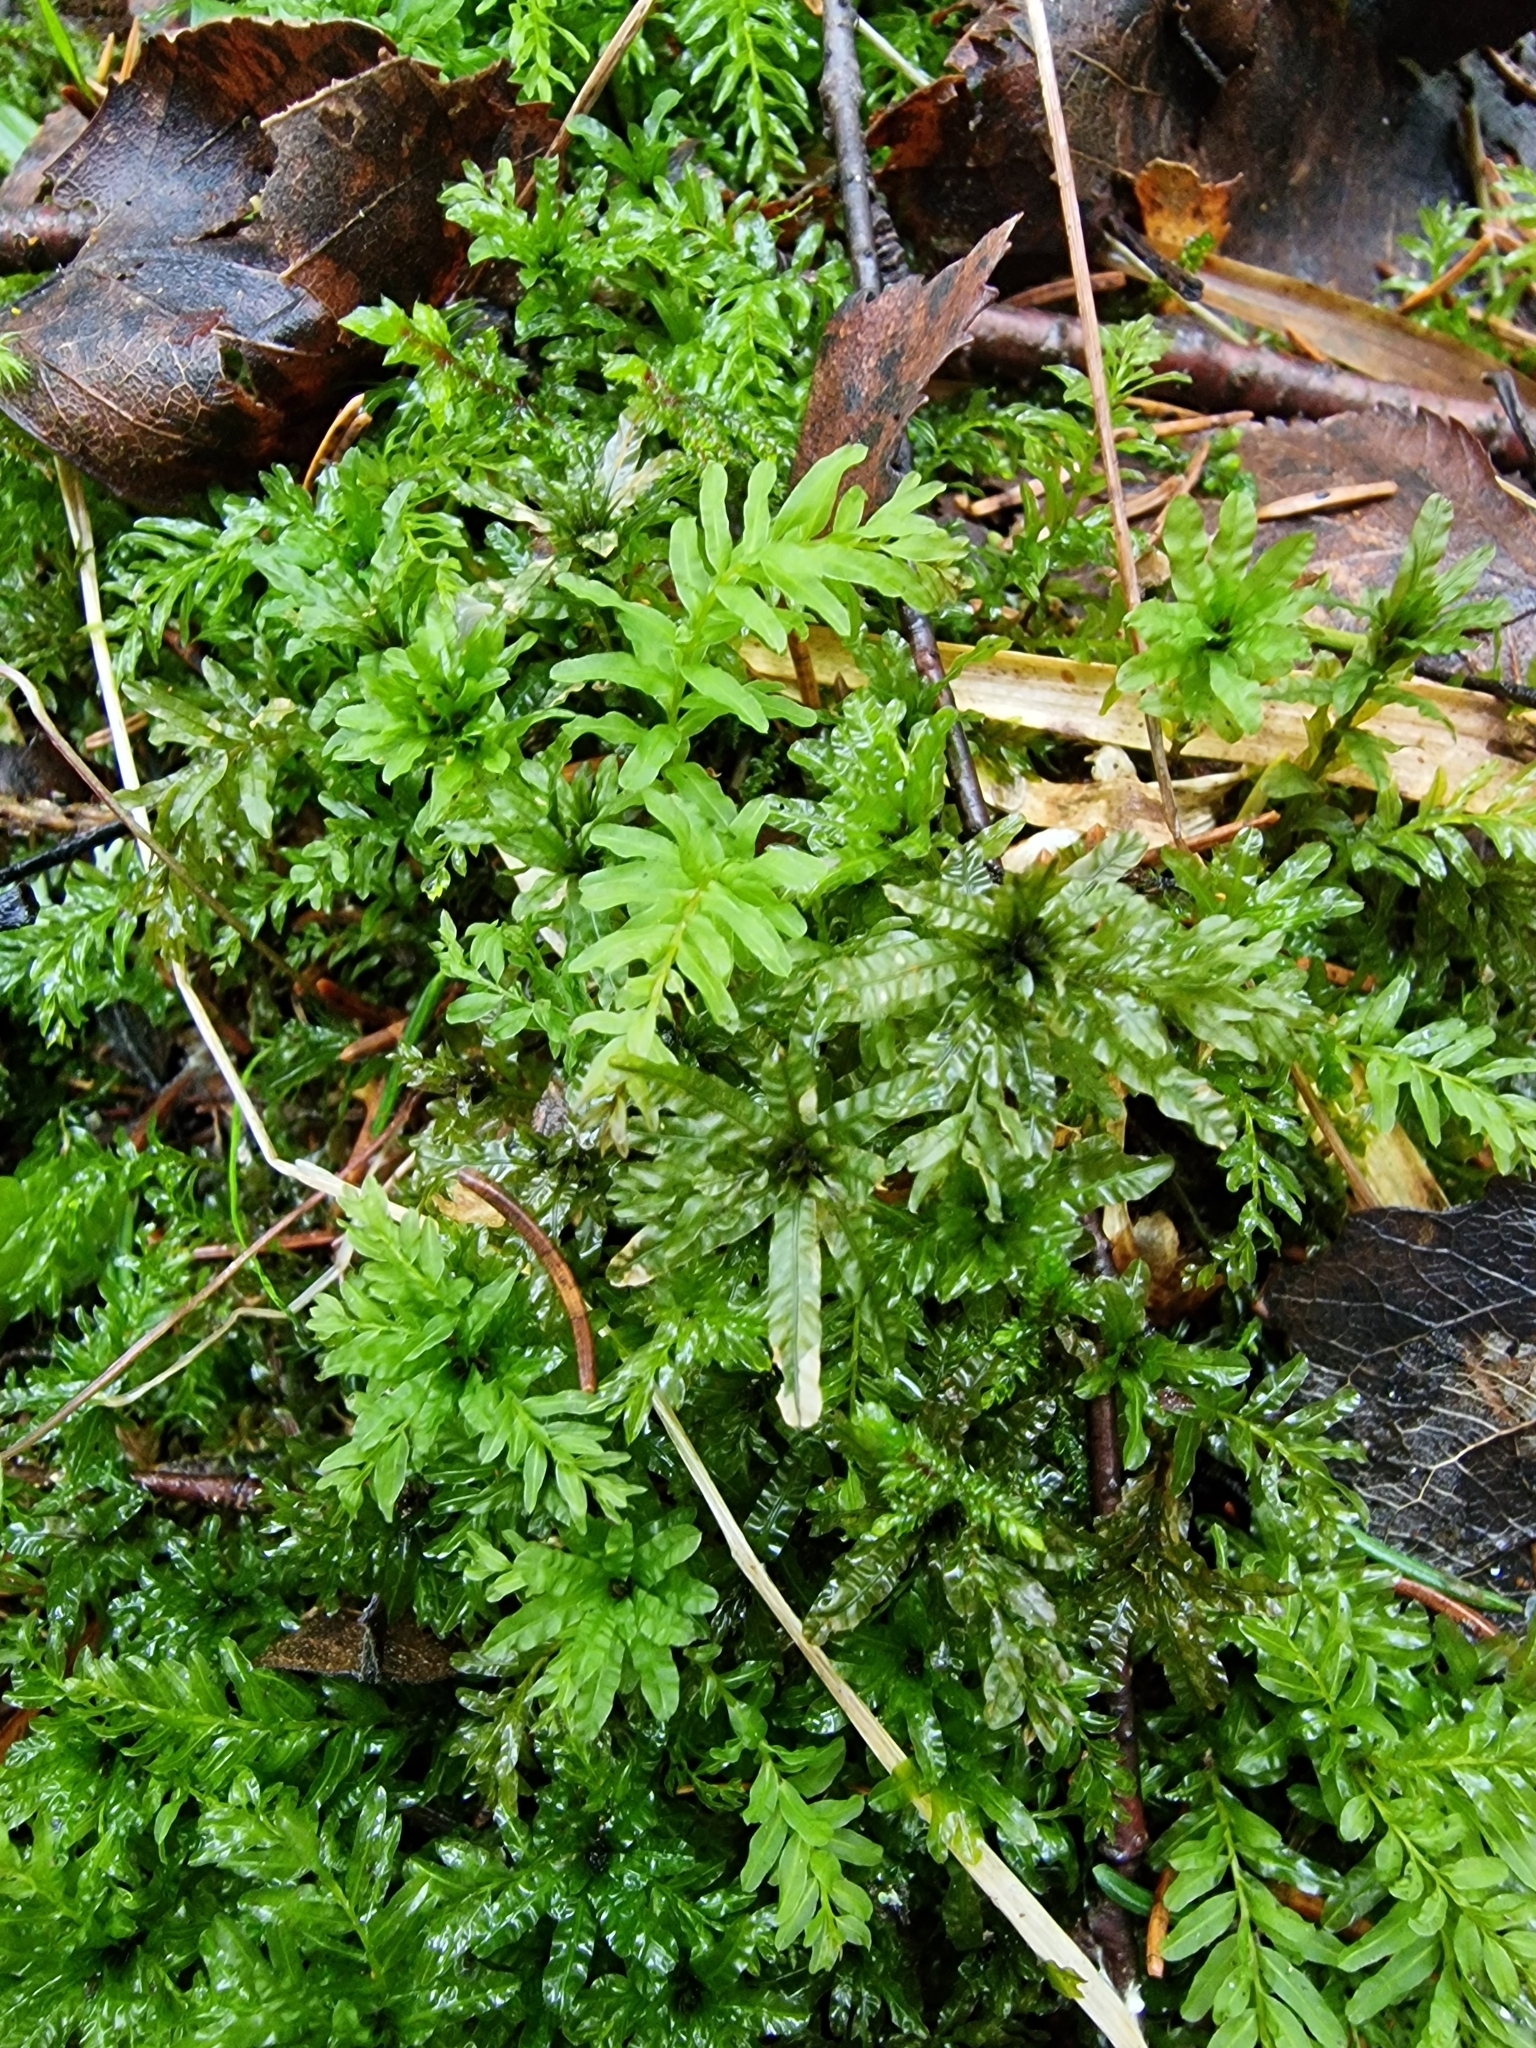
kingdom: Plantae
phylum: Bryophyta
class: Bryopsida
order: Bryales
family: Mniaceae
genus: Plagiomnium
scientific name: Plagiomnium undulatum
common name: Hart's-tongue thyme-moss
